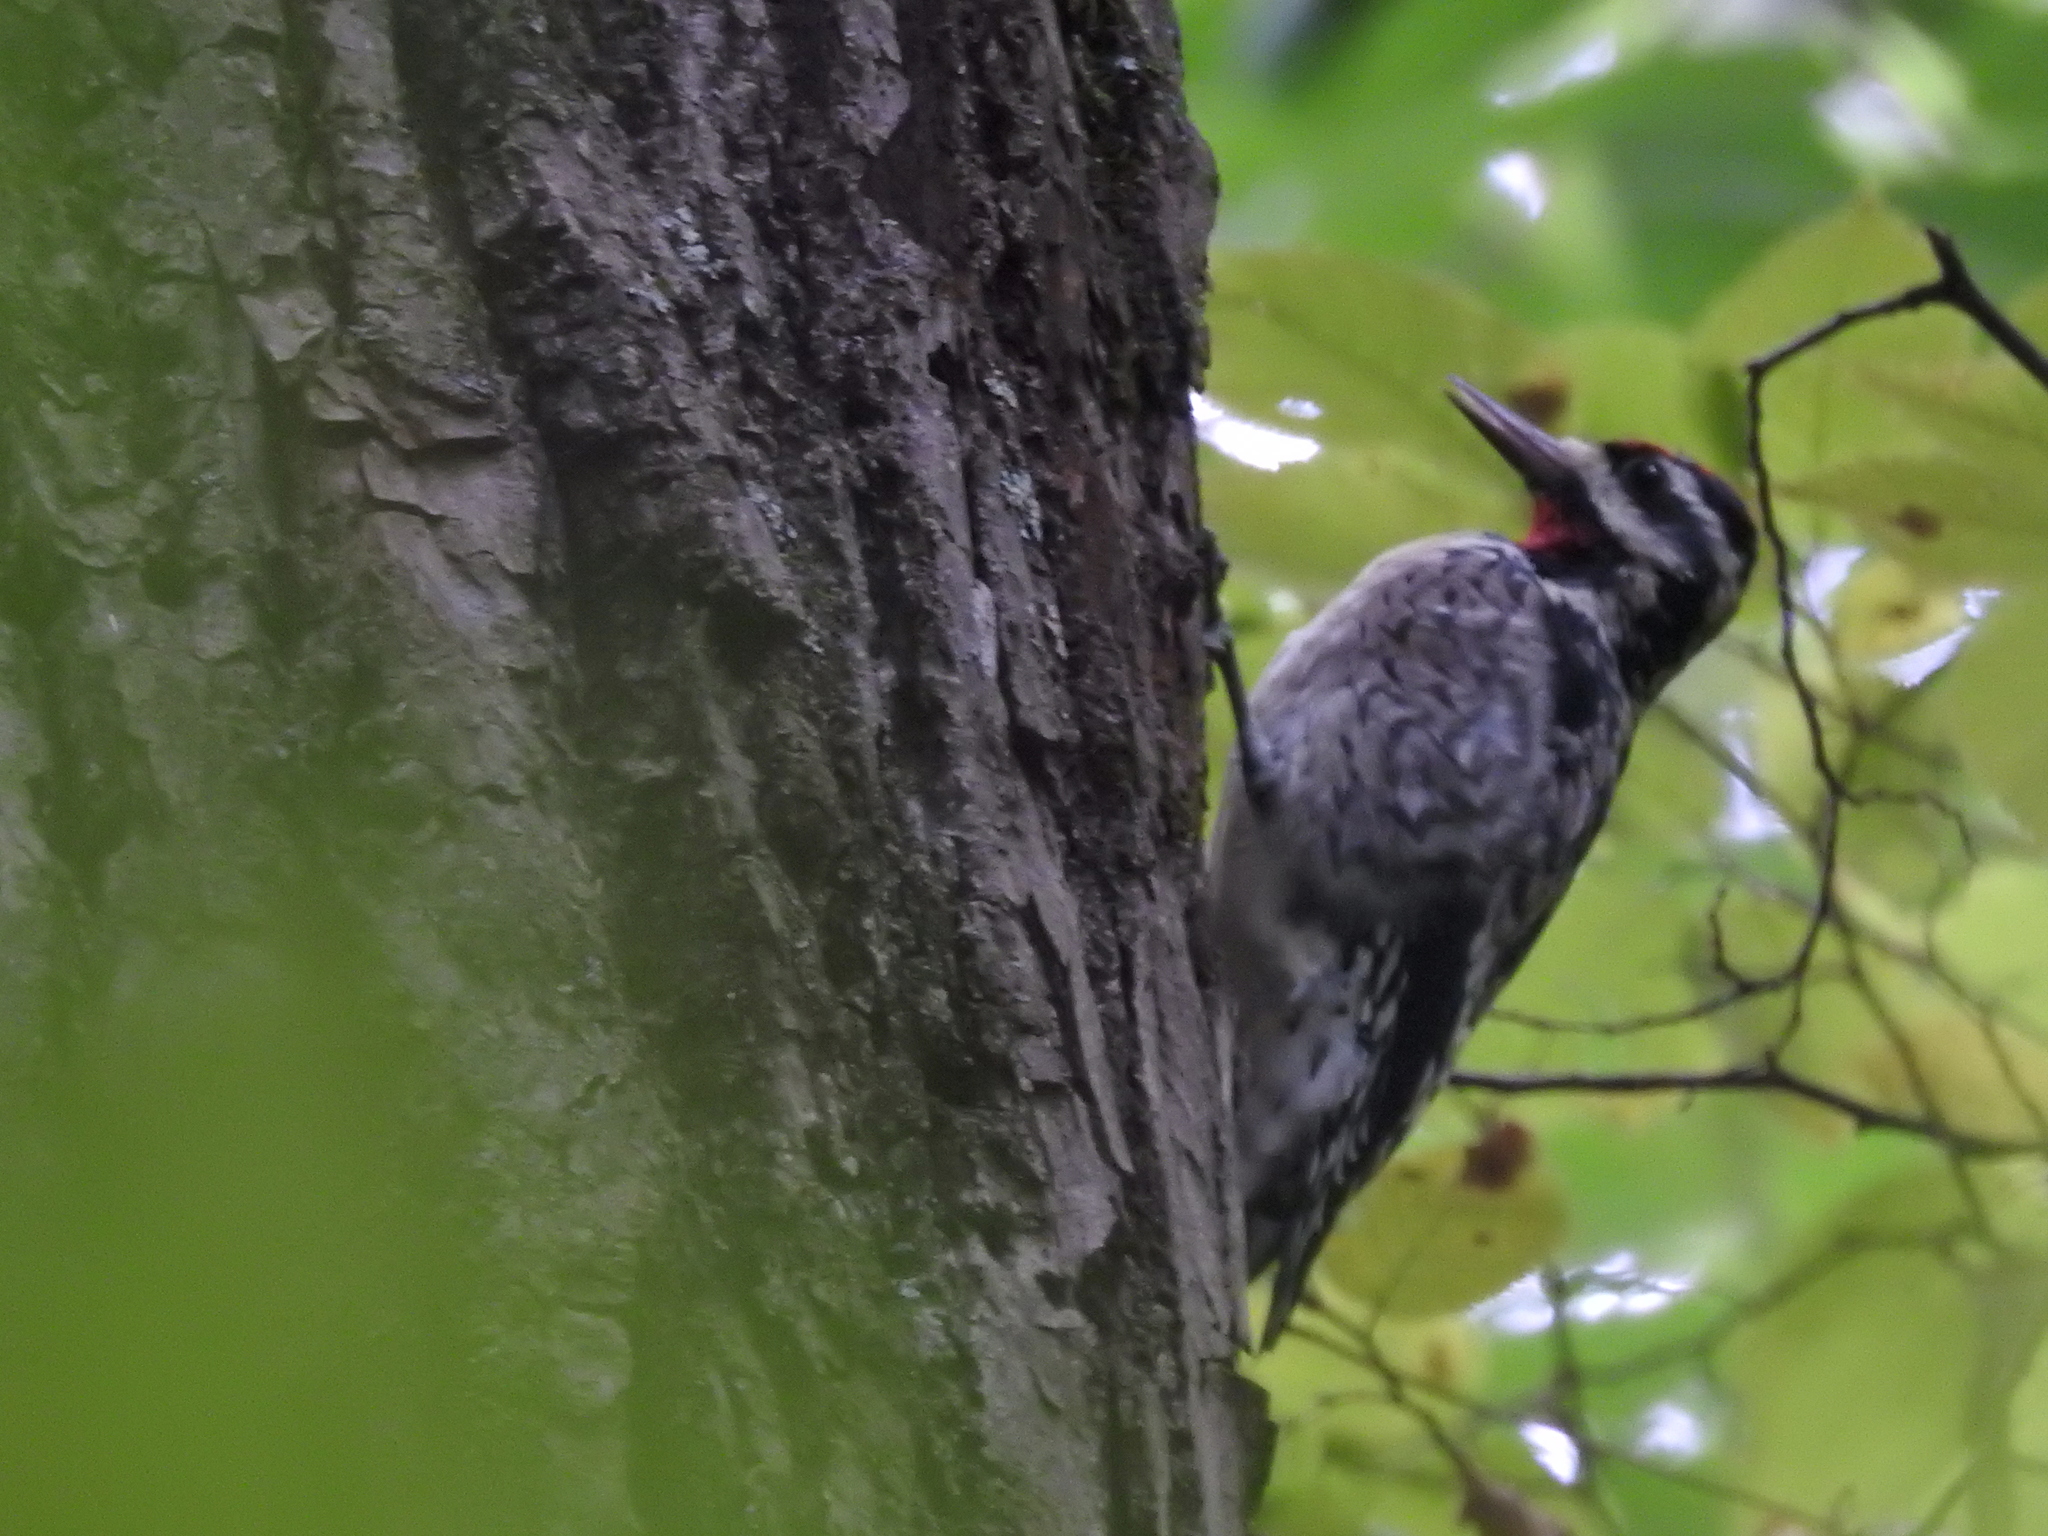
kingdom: Animalia
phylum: Chordata
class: Aves
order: Piciformes
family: Picidae
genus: Sphyrapicus
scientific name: Sphyrapicus varius
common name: Yellow-bellied sapsucker
